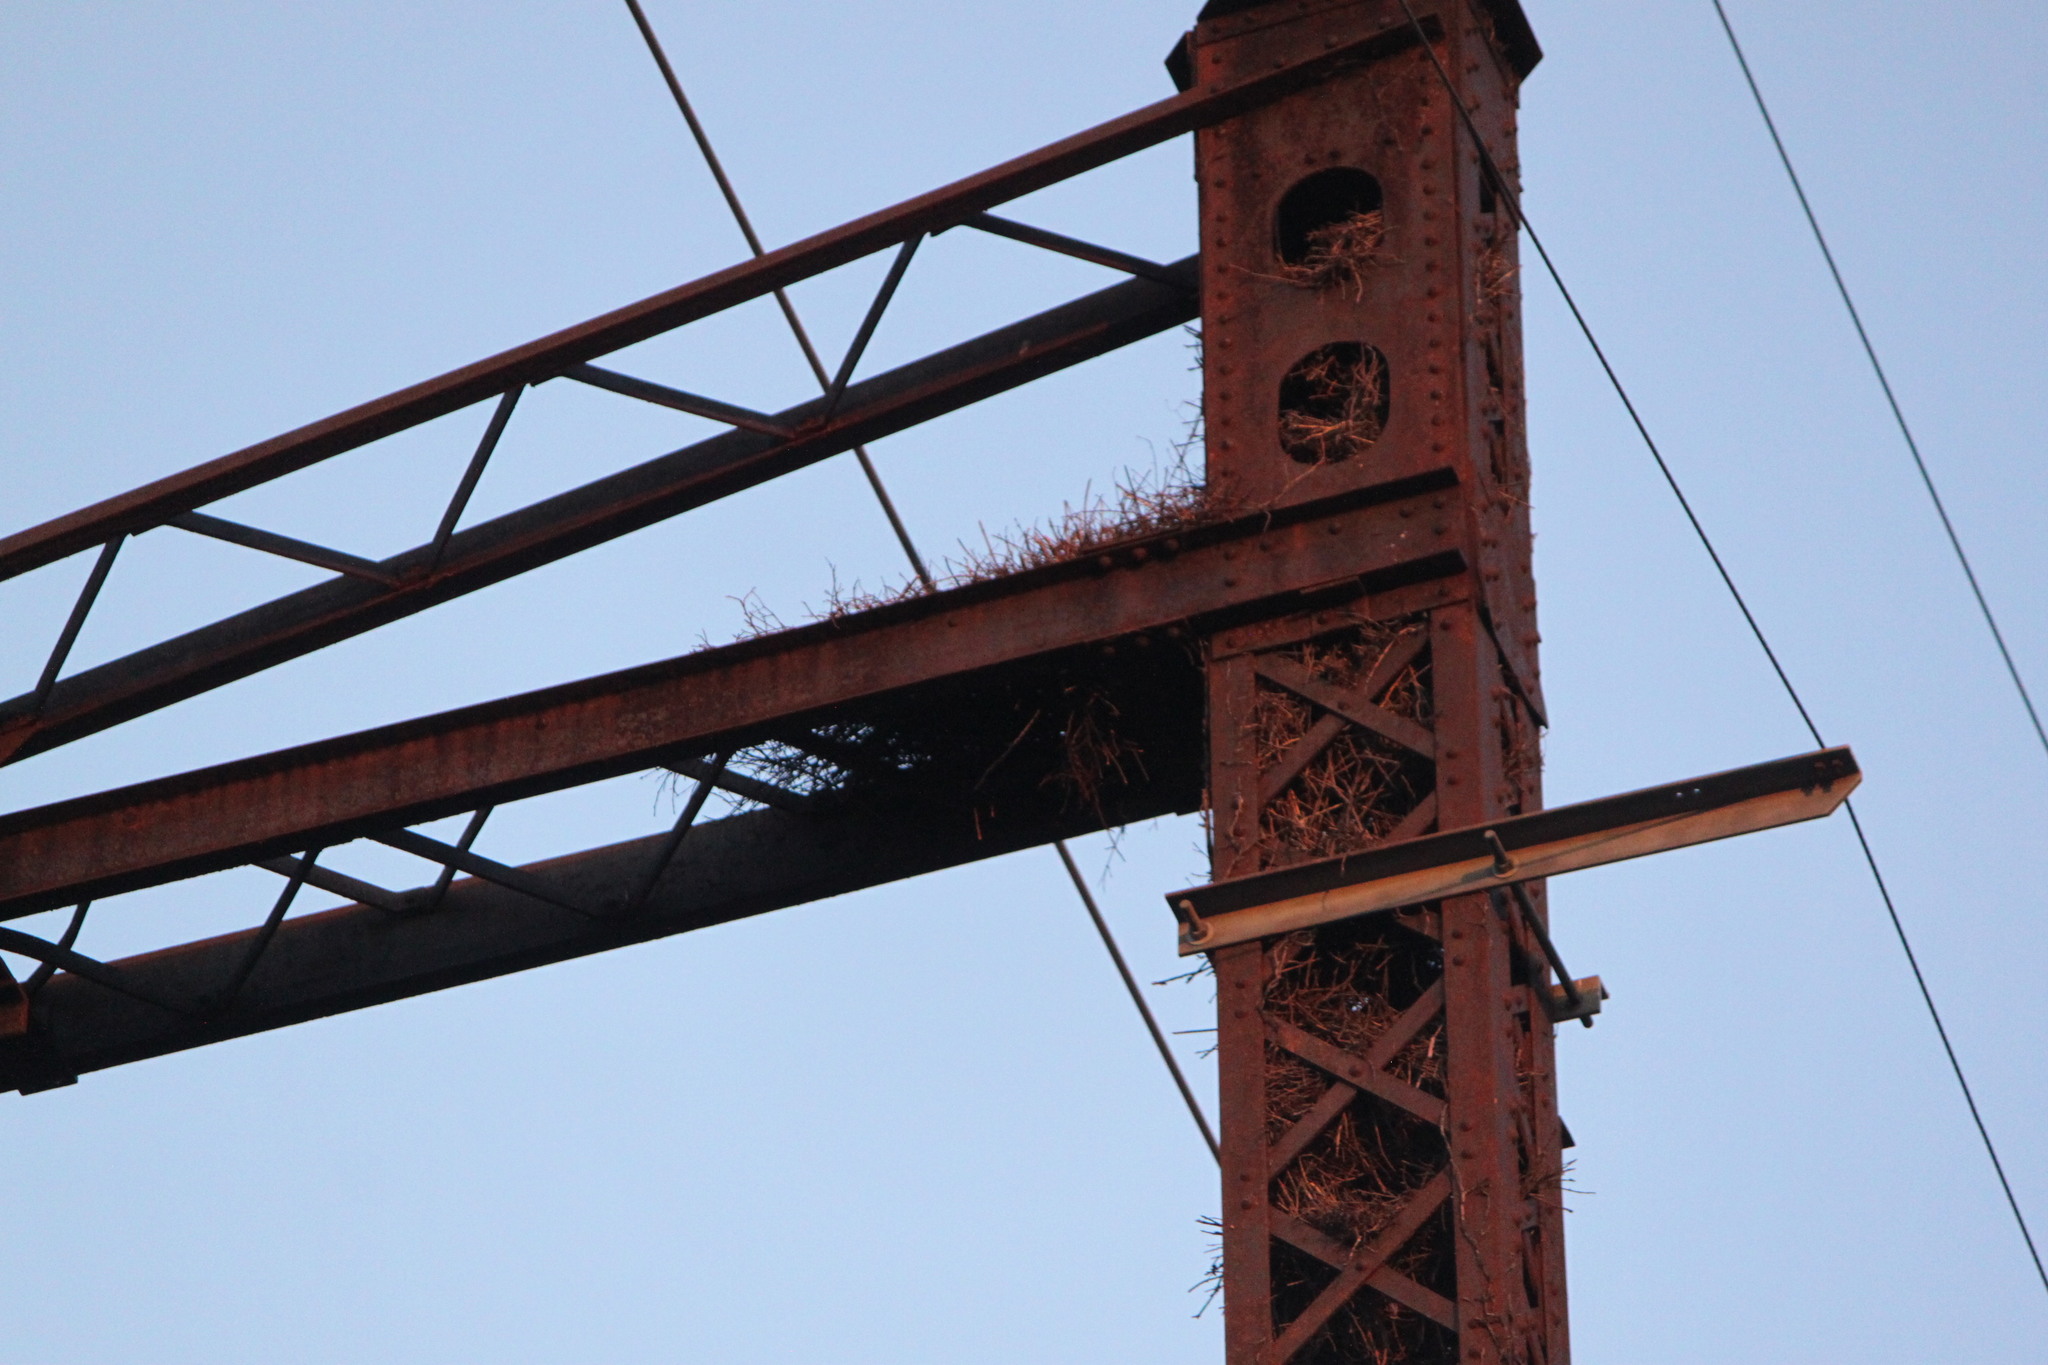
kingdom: Animalia
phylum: Chordata
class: Aves
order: Psittaciformes
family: Psittacidae
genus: Myiopsitta
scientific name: Myiopsitta monachus
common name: Monk parakeet
